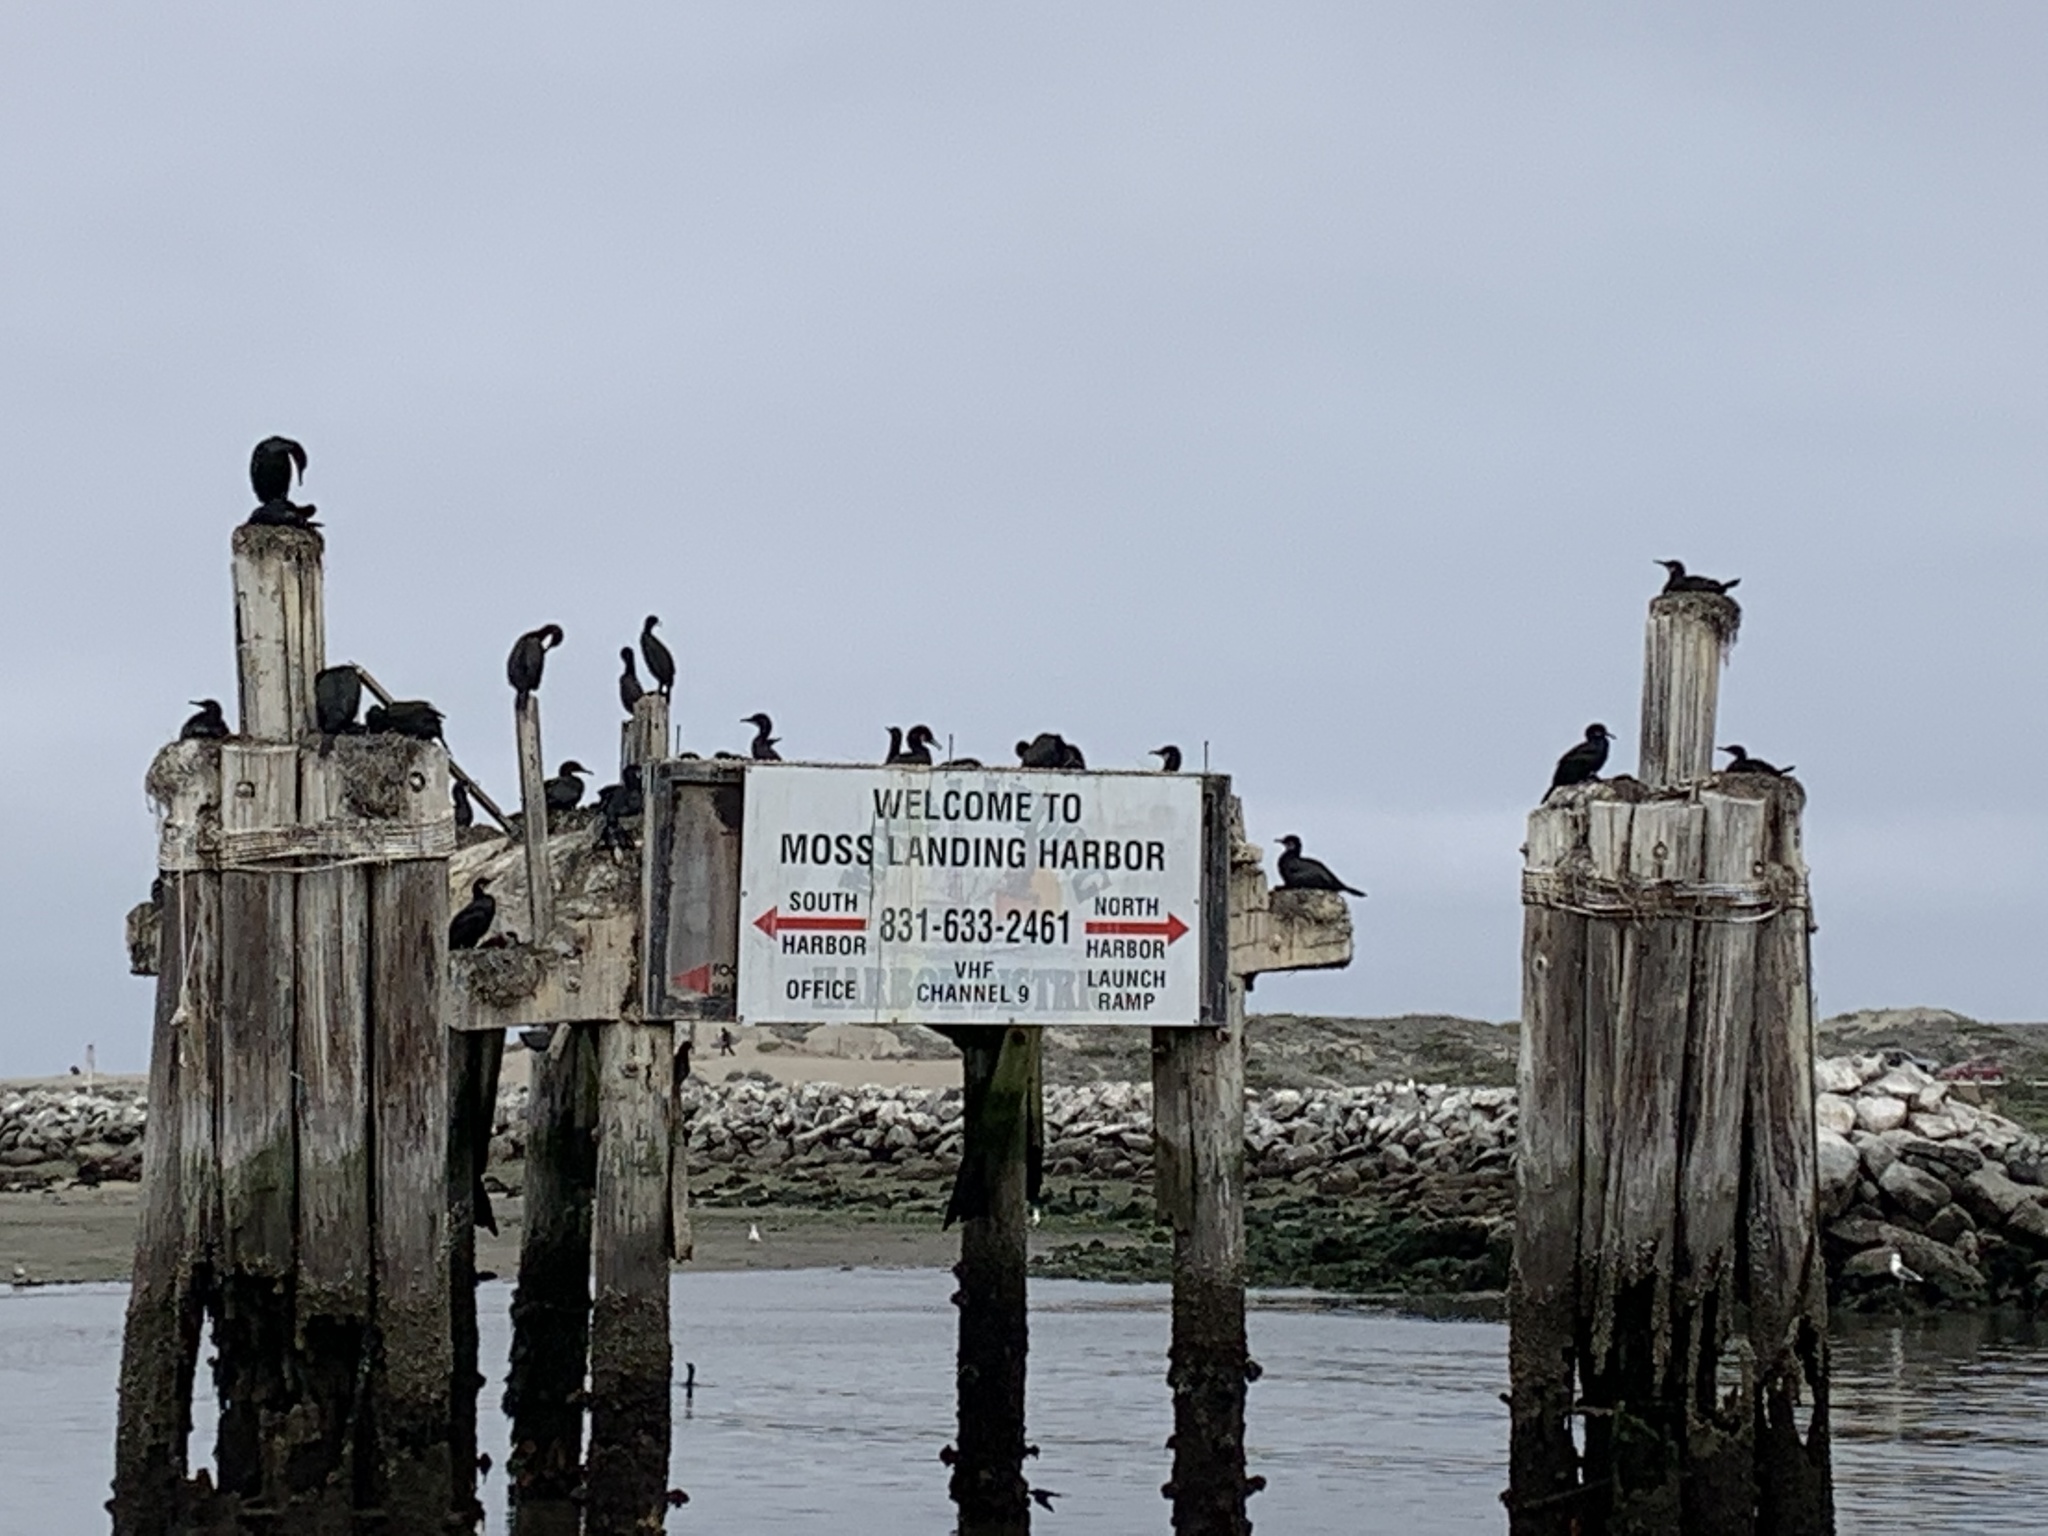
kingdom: Animalia
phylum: Chordata
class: Aves
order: Suliformes
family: Phalacrocoracidae
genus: Urile
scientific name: Urile penicillatus
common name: Brandt's cormorant
